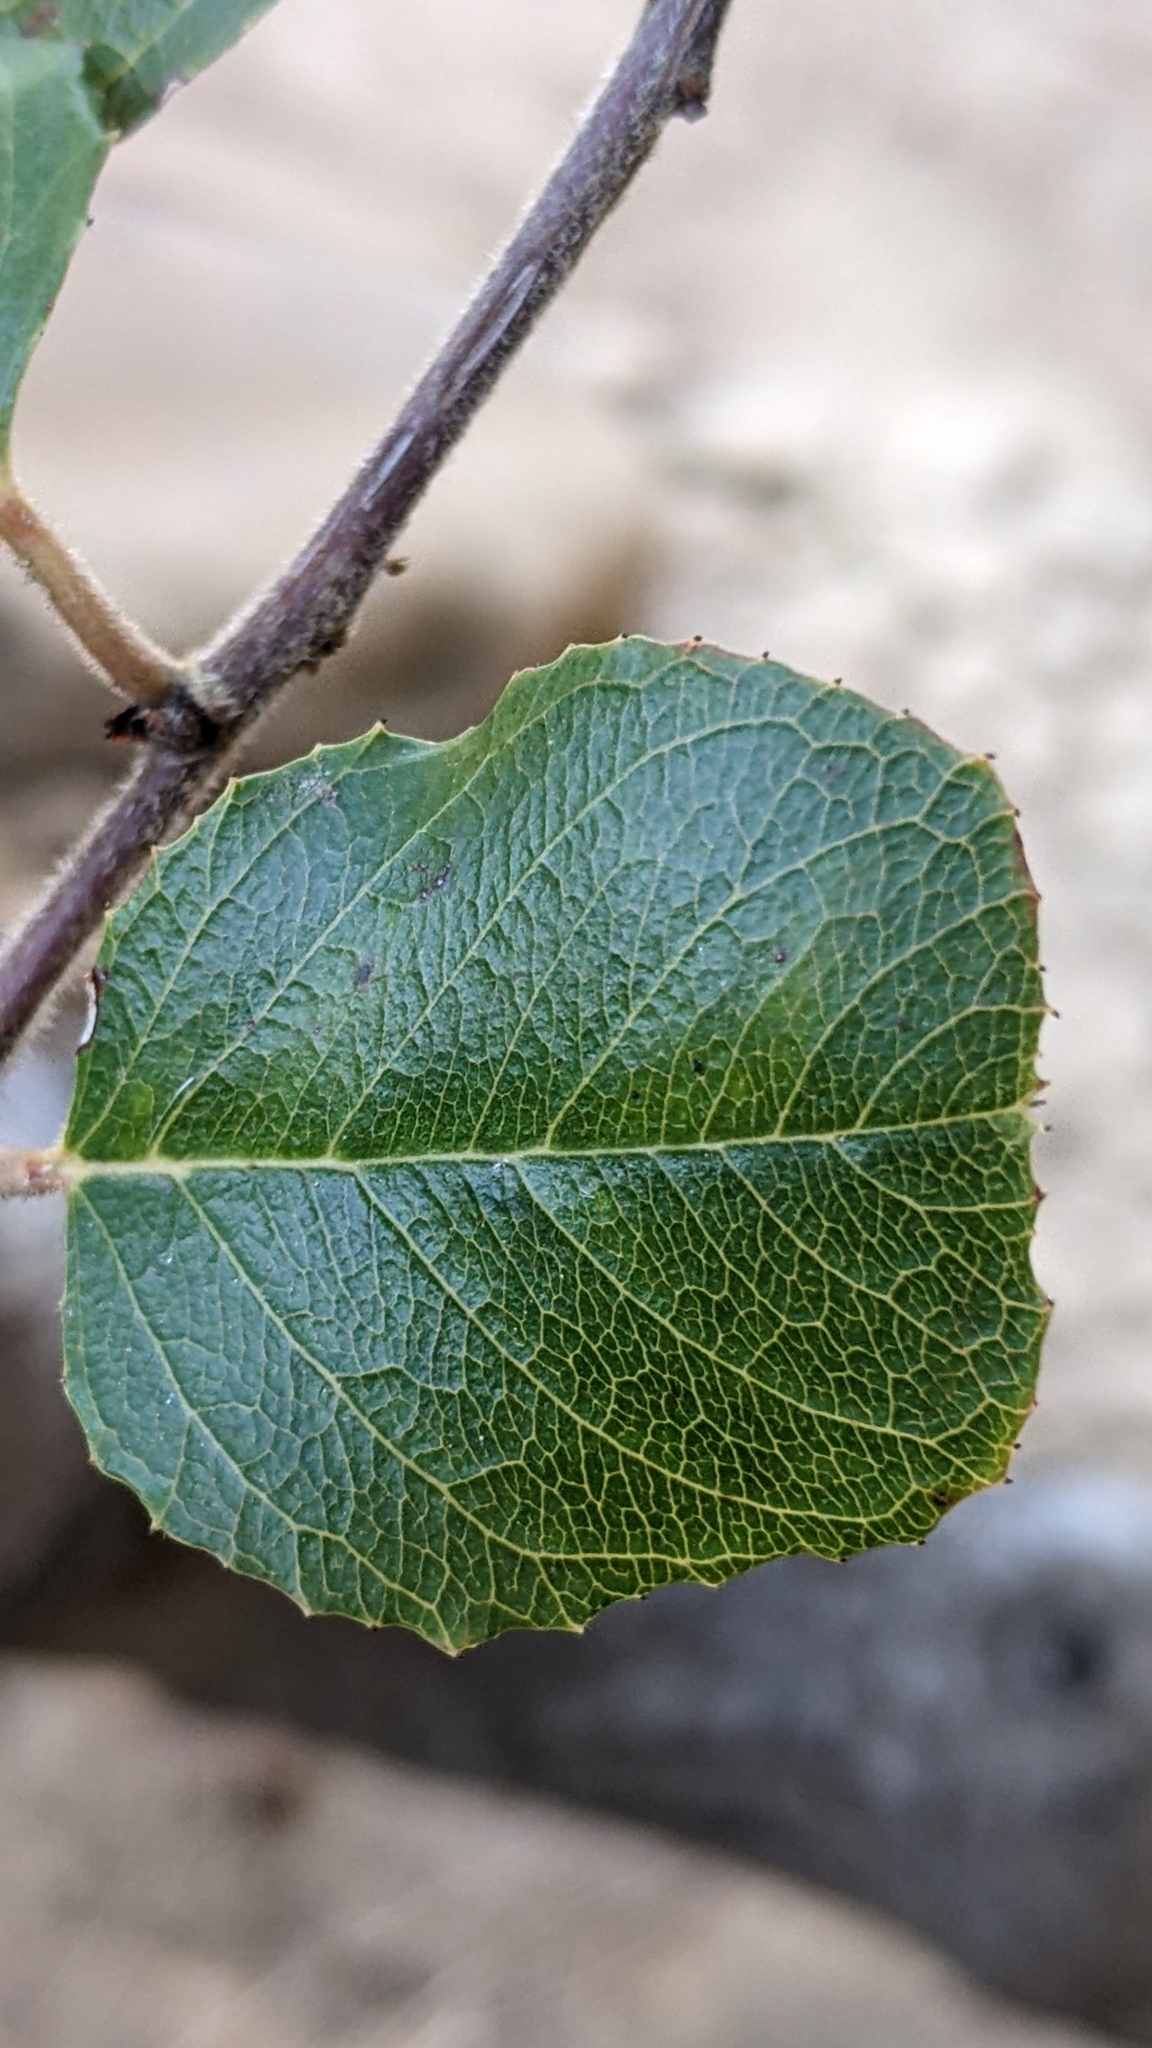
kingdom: Plantae
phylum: Tracheophyta
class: Magnoliopsida
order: Rosales
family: Rhamnaceae
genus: Endotropis
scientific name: Endotropis crocea
